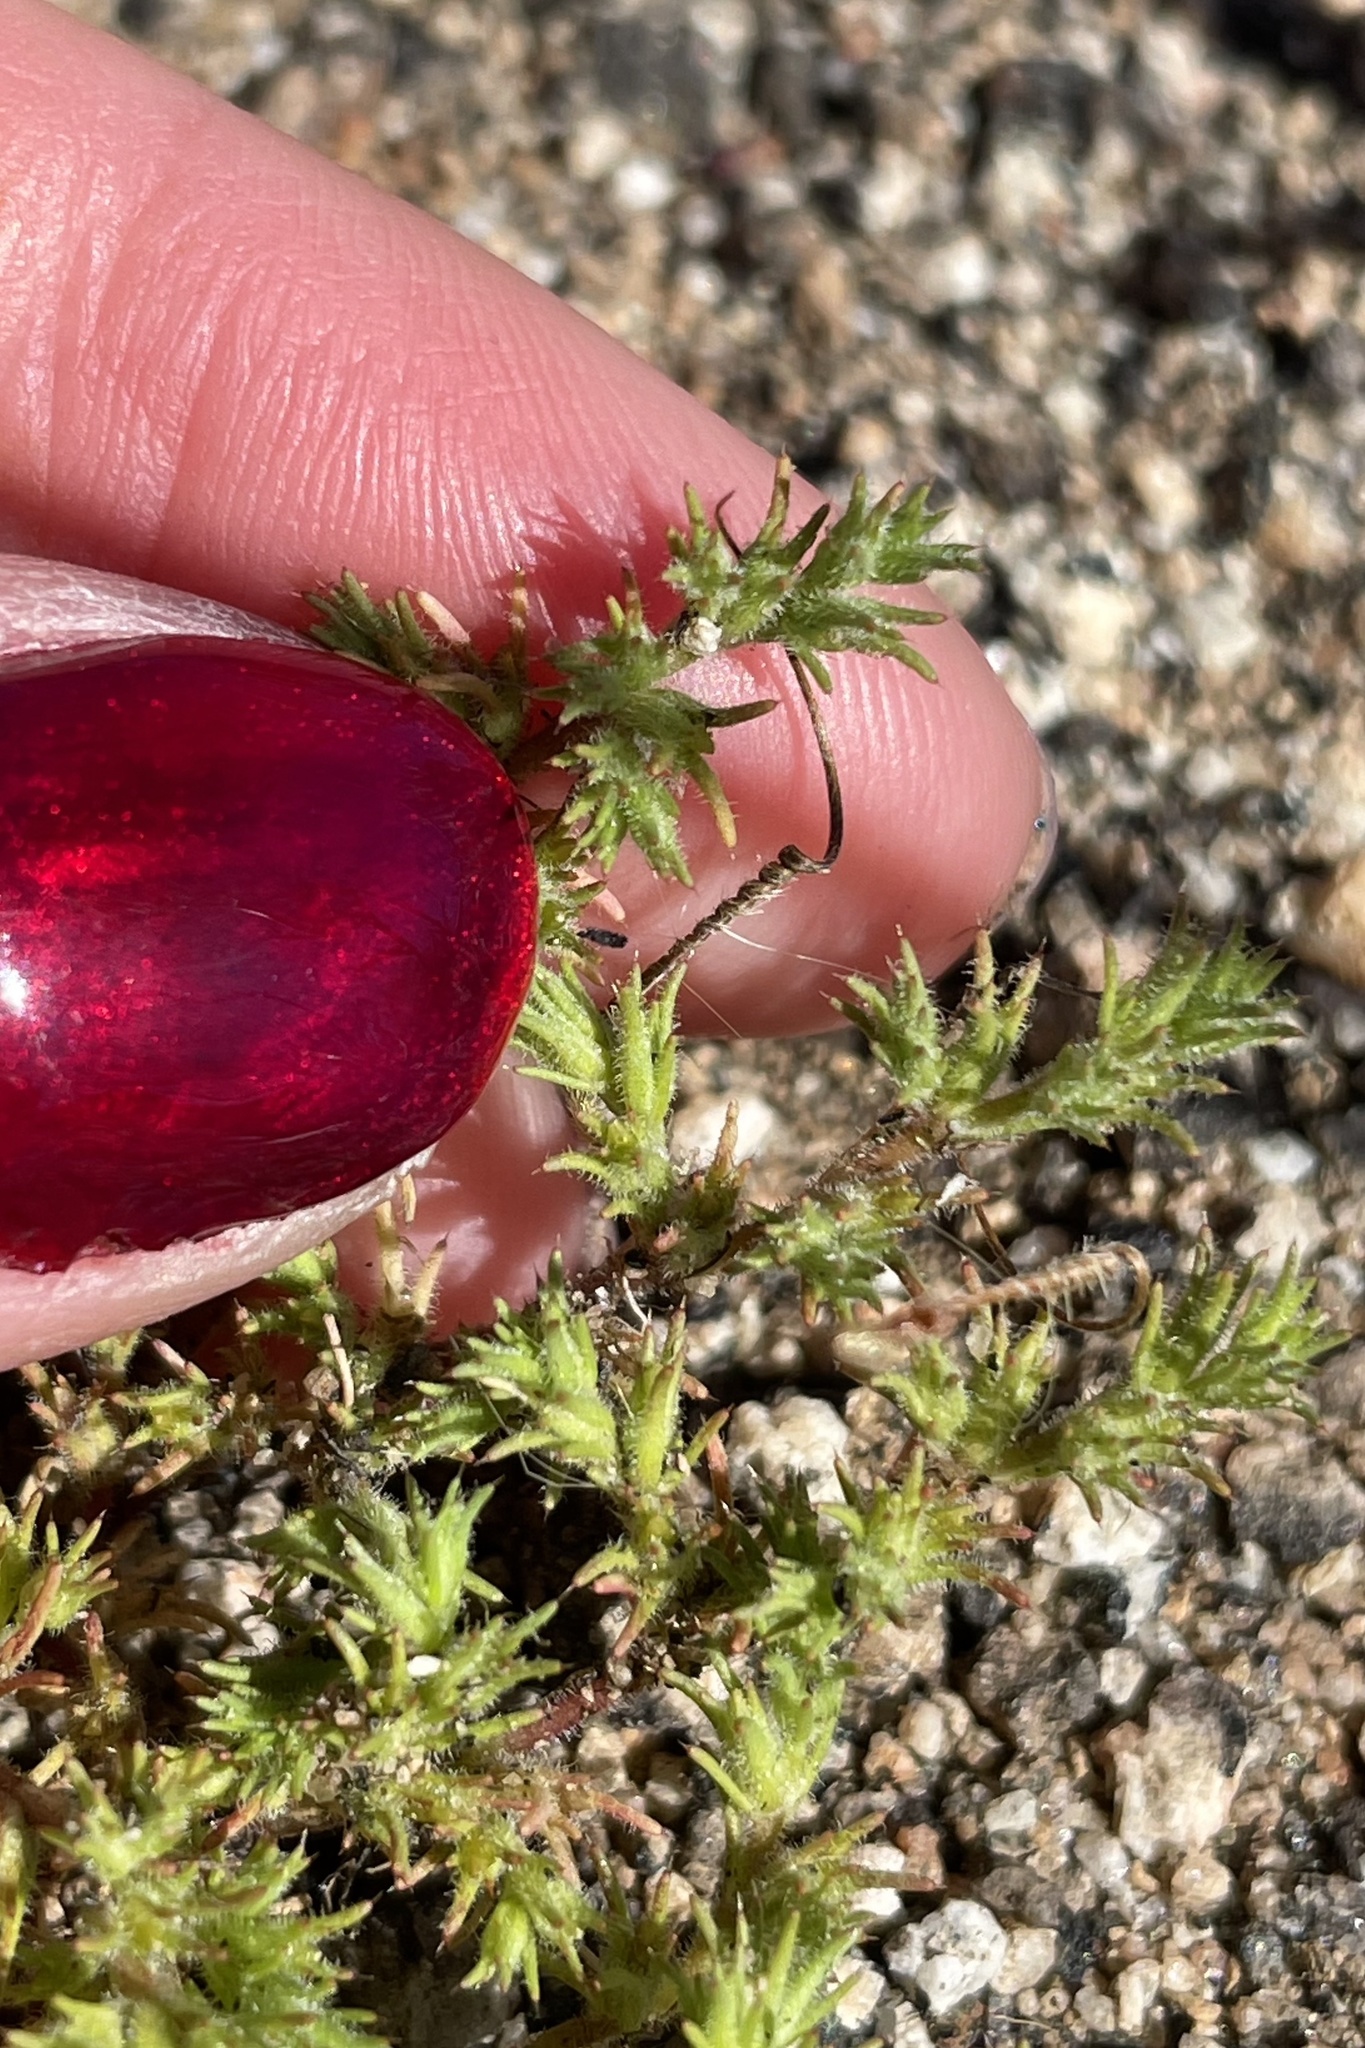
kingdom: Plantae
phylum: Tracheophyta
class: Magnoliopsida
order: Caryophyllales
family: Caryophyllaceae
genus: Loeflingia
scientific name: Loeflingia squarrosa
